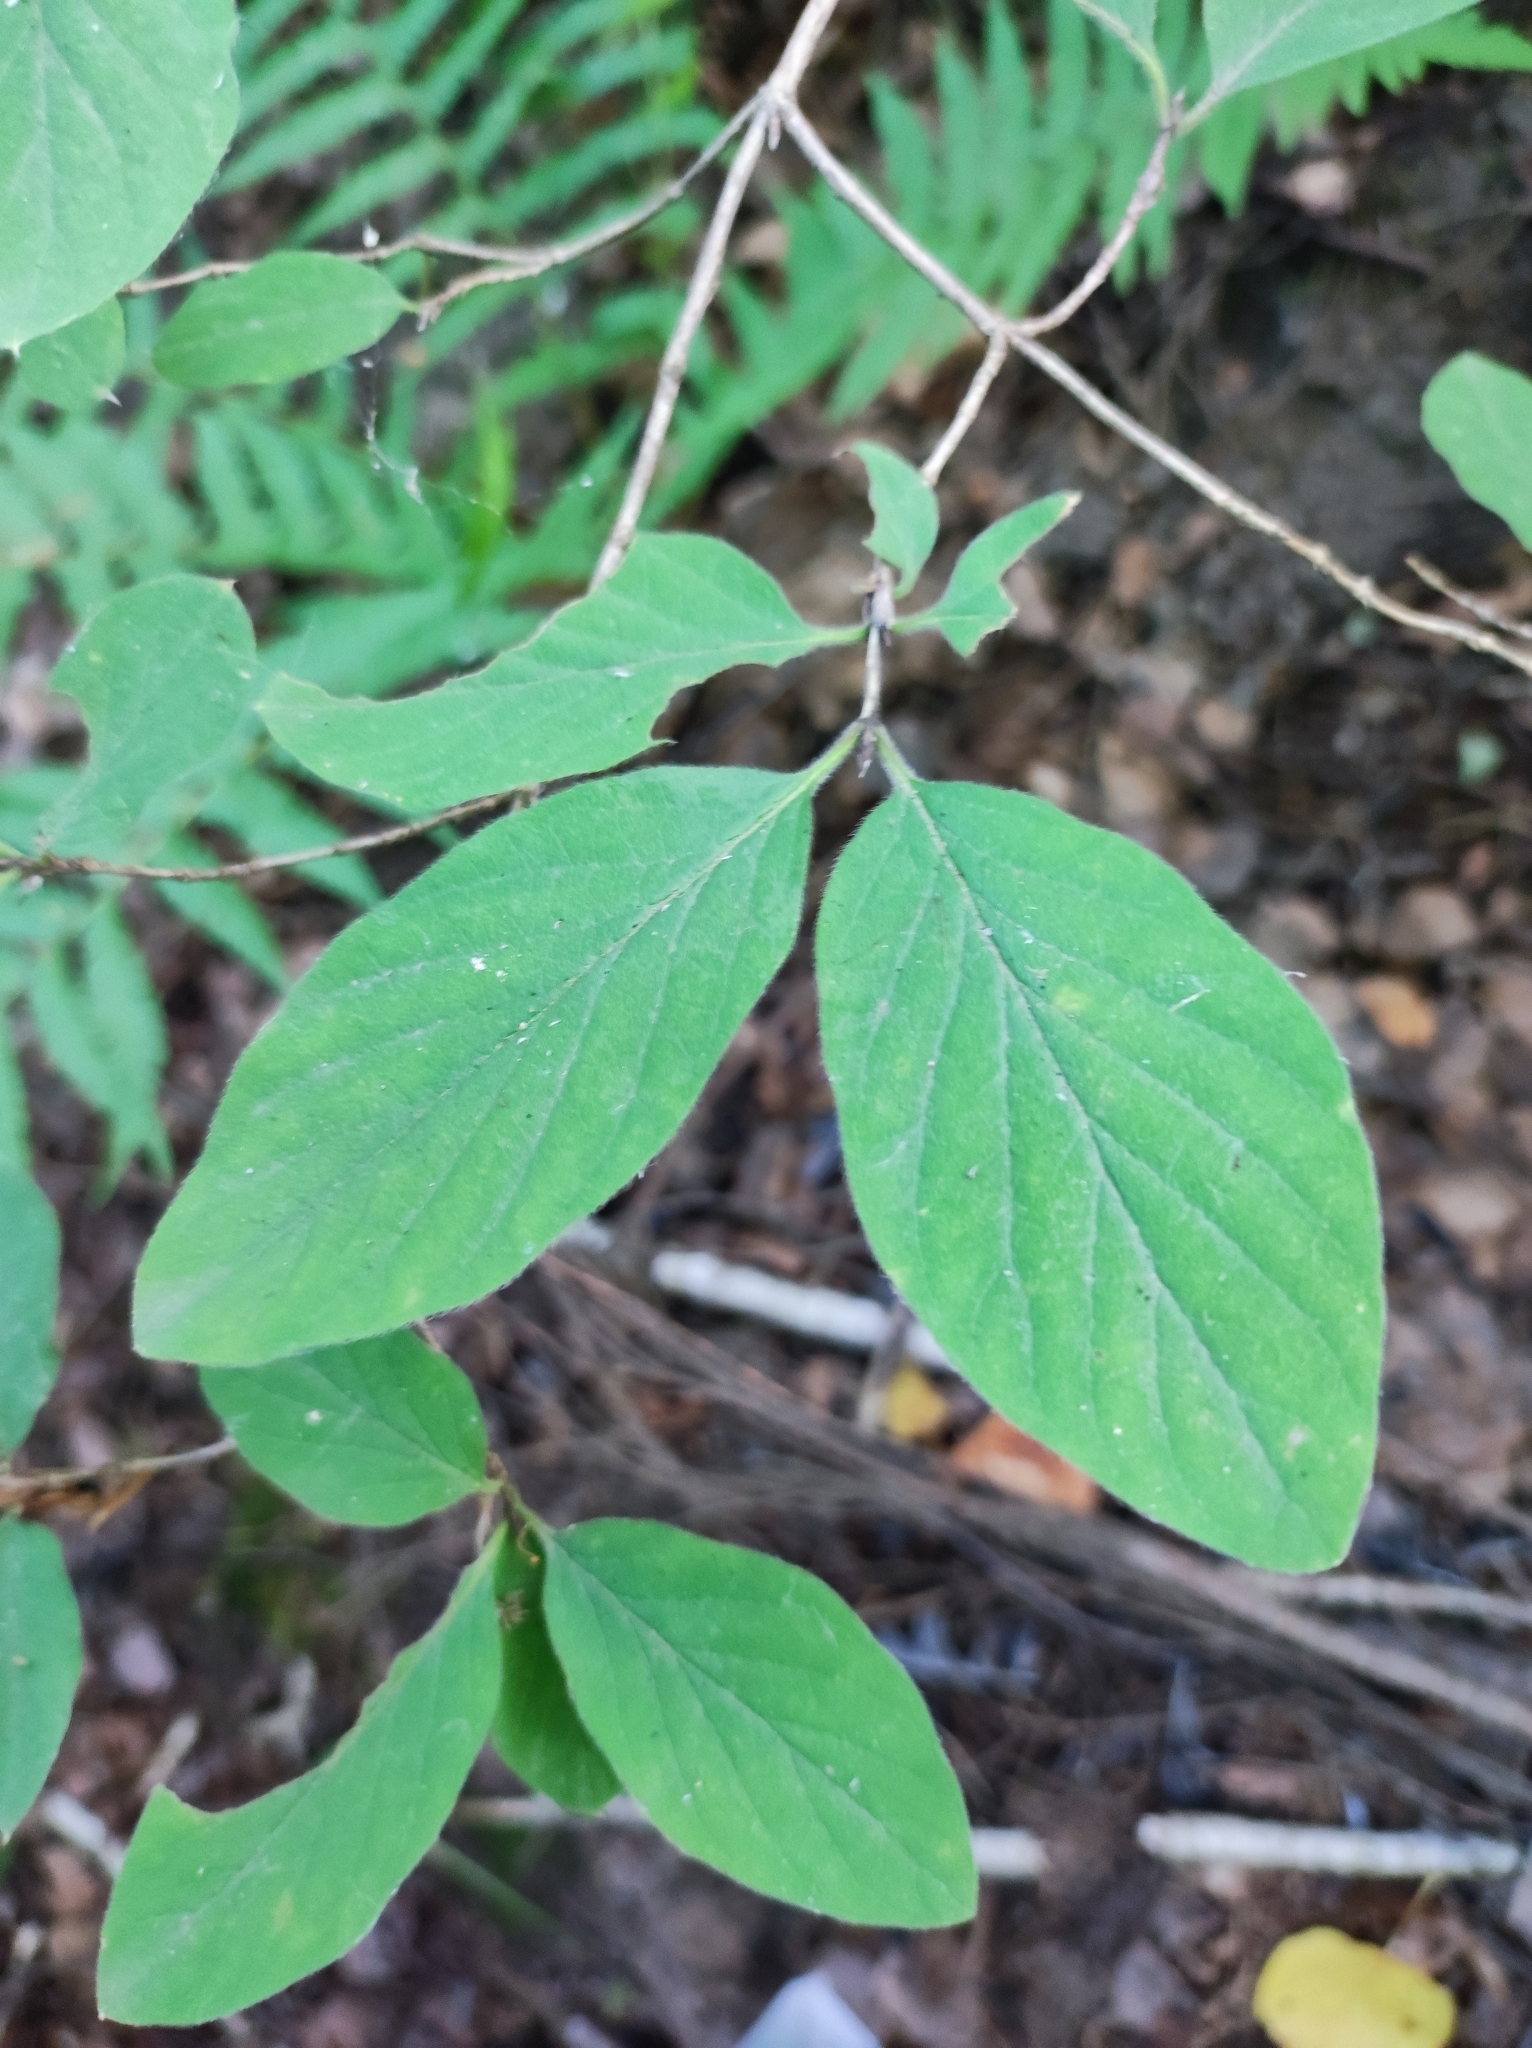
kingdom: Plantae
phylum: Tracheophyta
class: Magnoliopsida
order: Dipsacales
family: Caprifoliaceae
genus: Lonicera
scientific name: Lonicera xylosteum
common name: Fly honeysuckle
